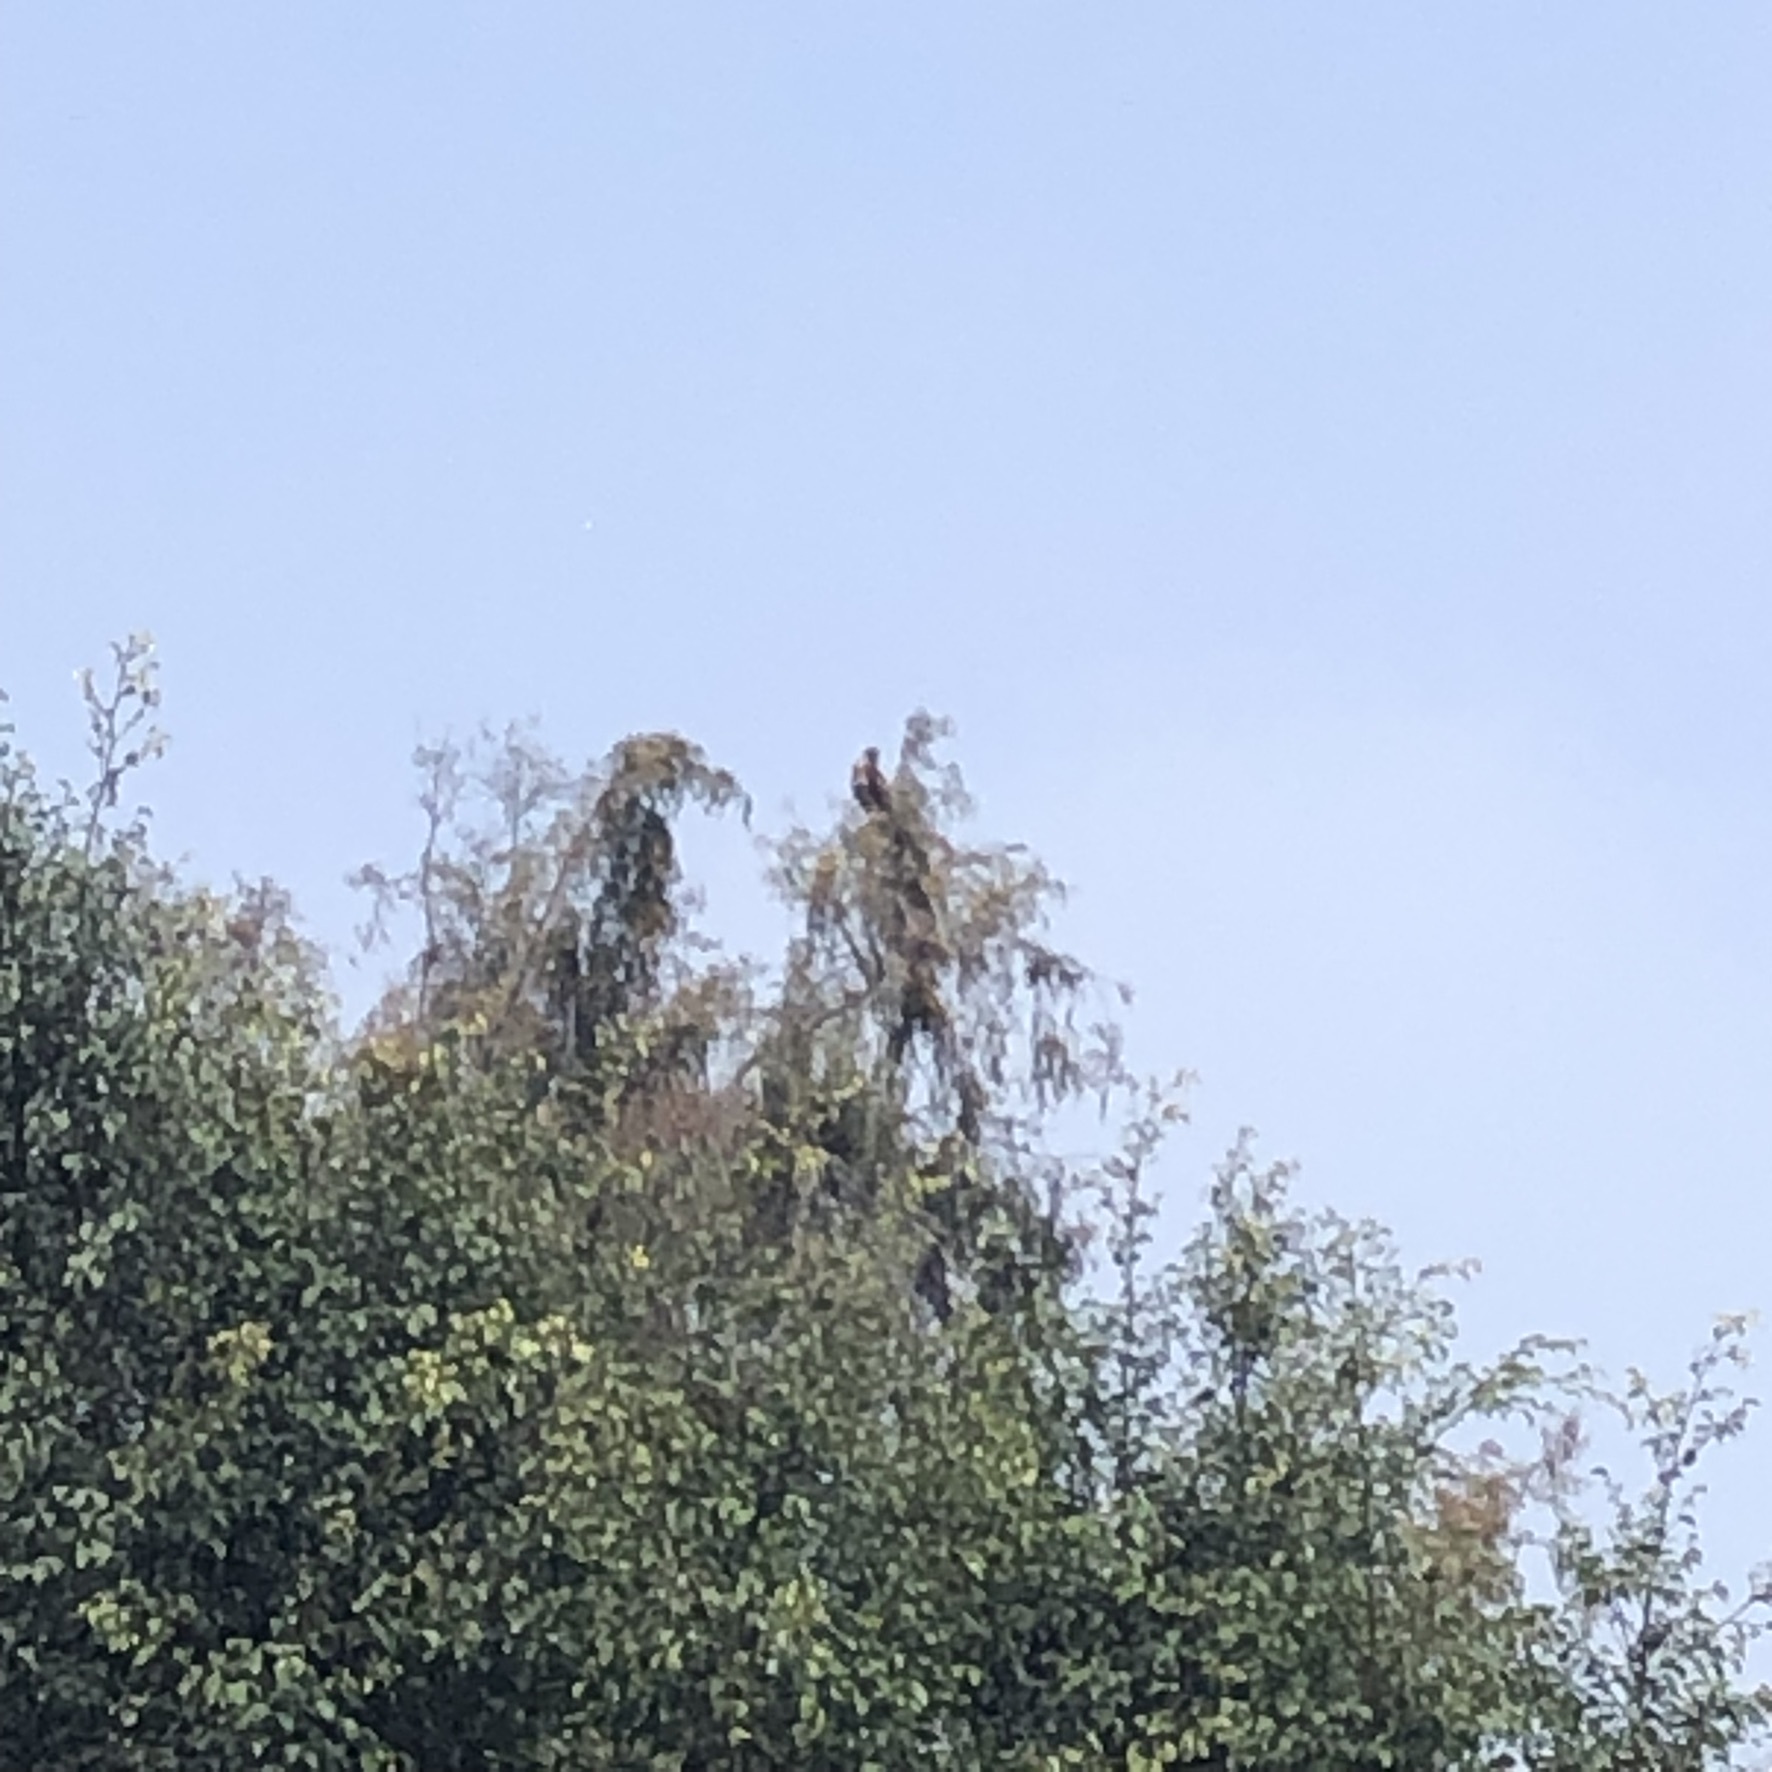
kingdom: Animalia
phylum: Chordata
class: Aves
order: Accipitriformes
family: Accipitridae
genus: Parabuteo
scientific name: Parabuteo unicinctus
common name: Harris's hawk
